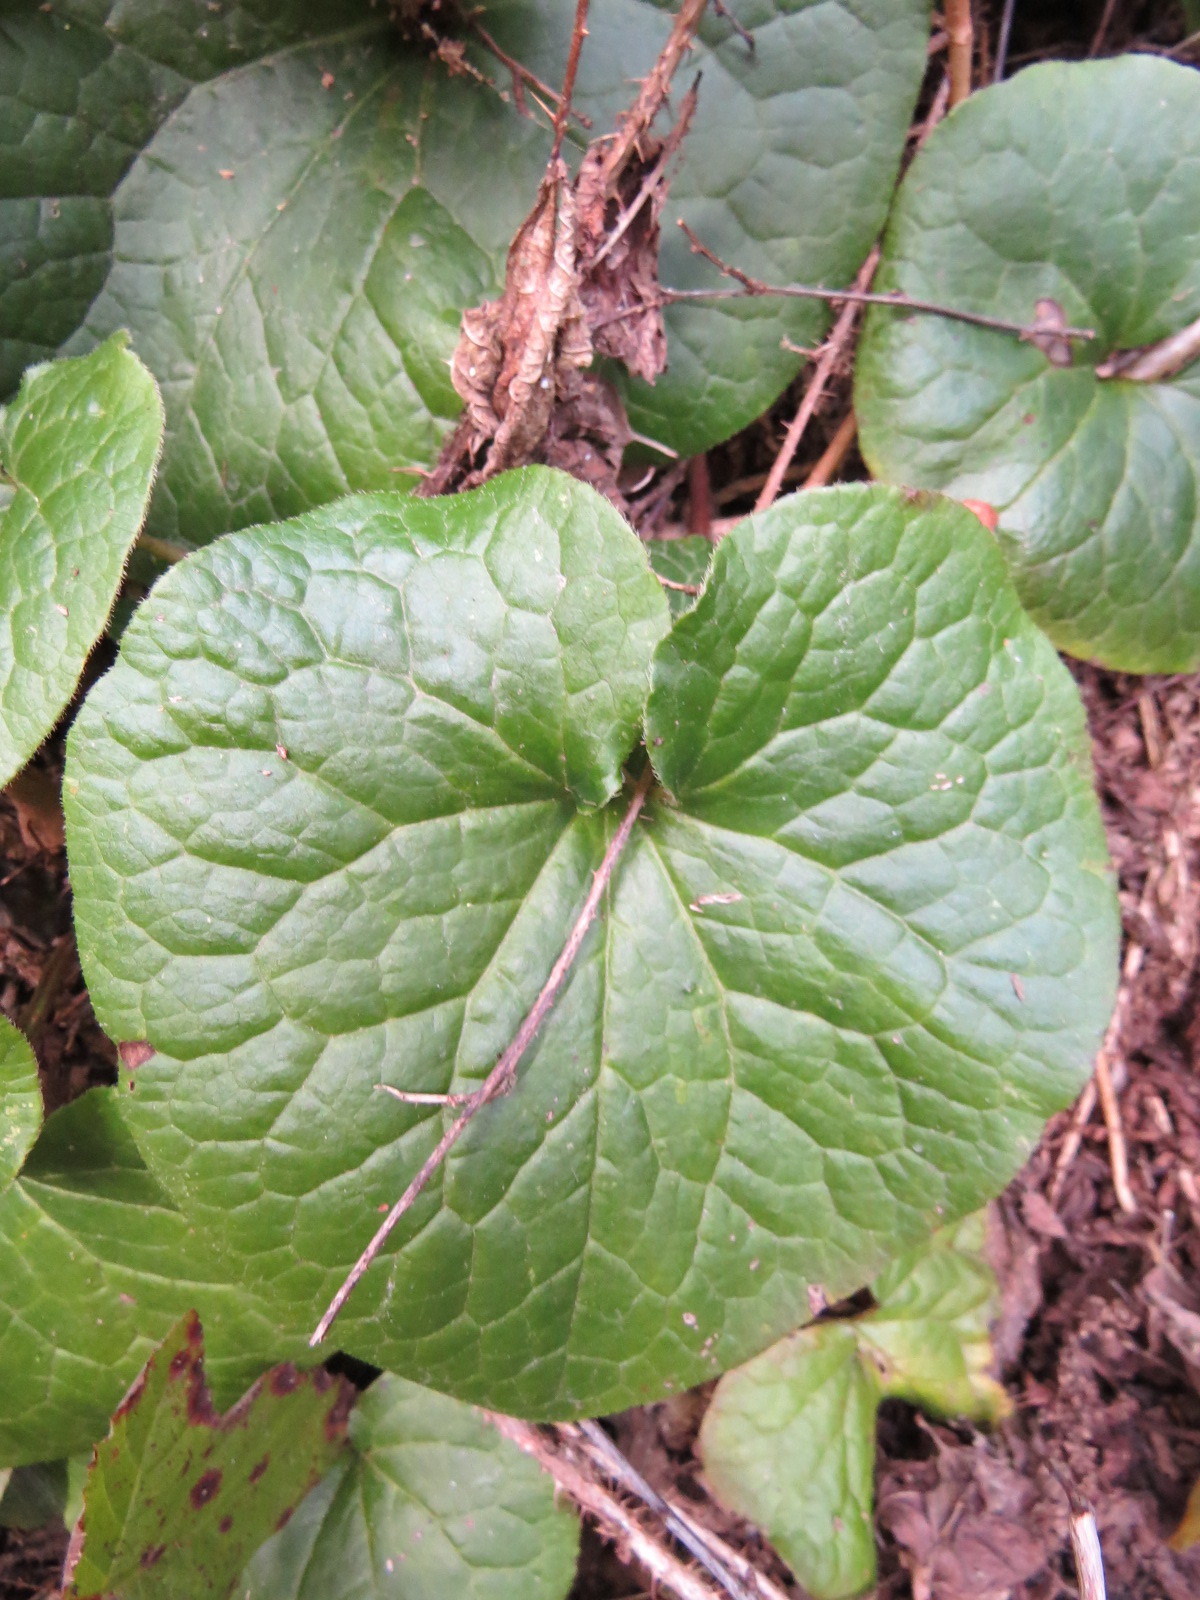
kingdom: Plantae
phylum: Tracheophyta
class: Magnoliopsida
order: Piperales
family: Aristolochiaceae
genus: Asarum
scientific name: Asarum caudatum
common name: Wild ginger
